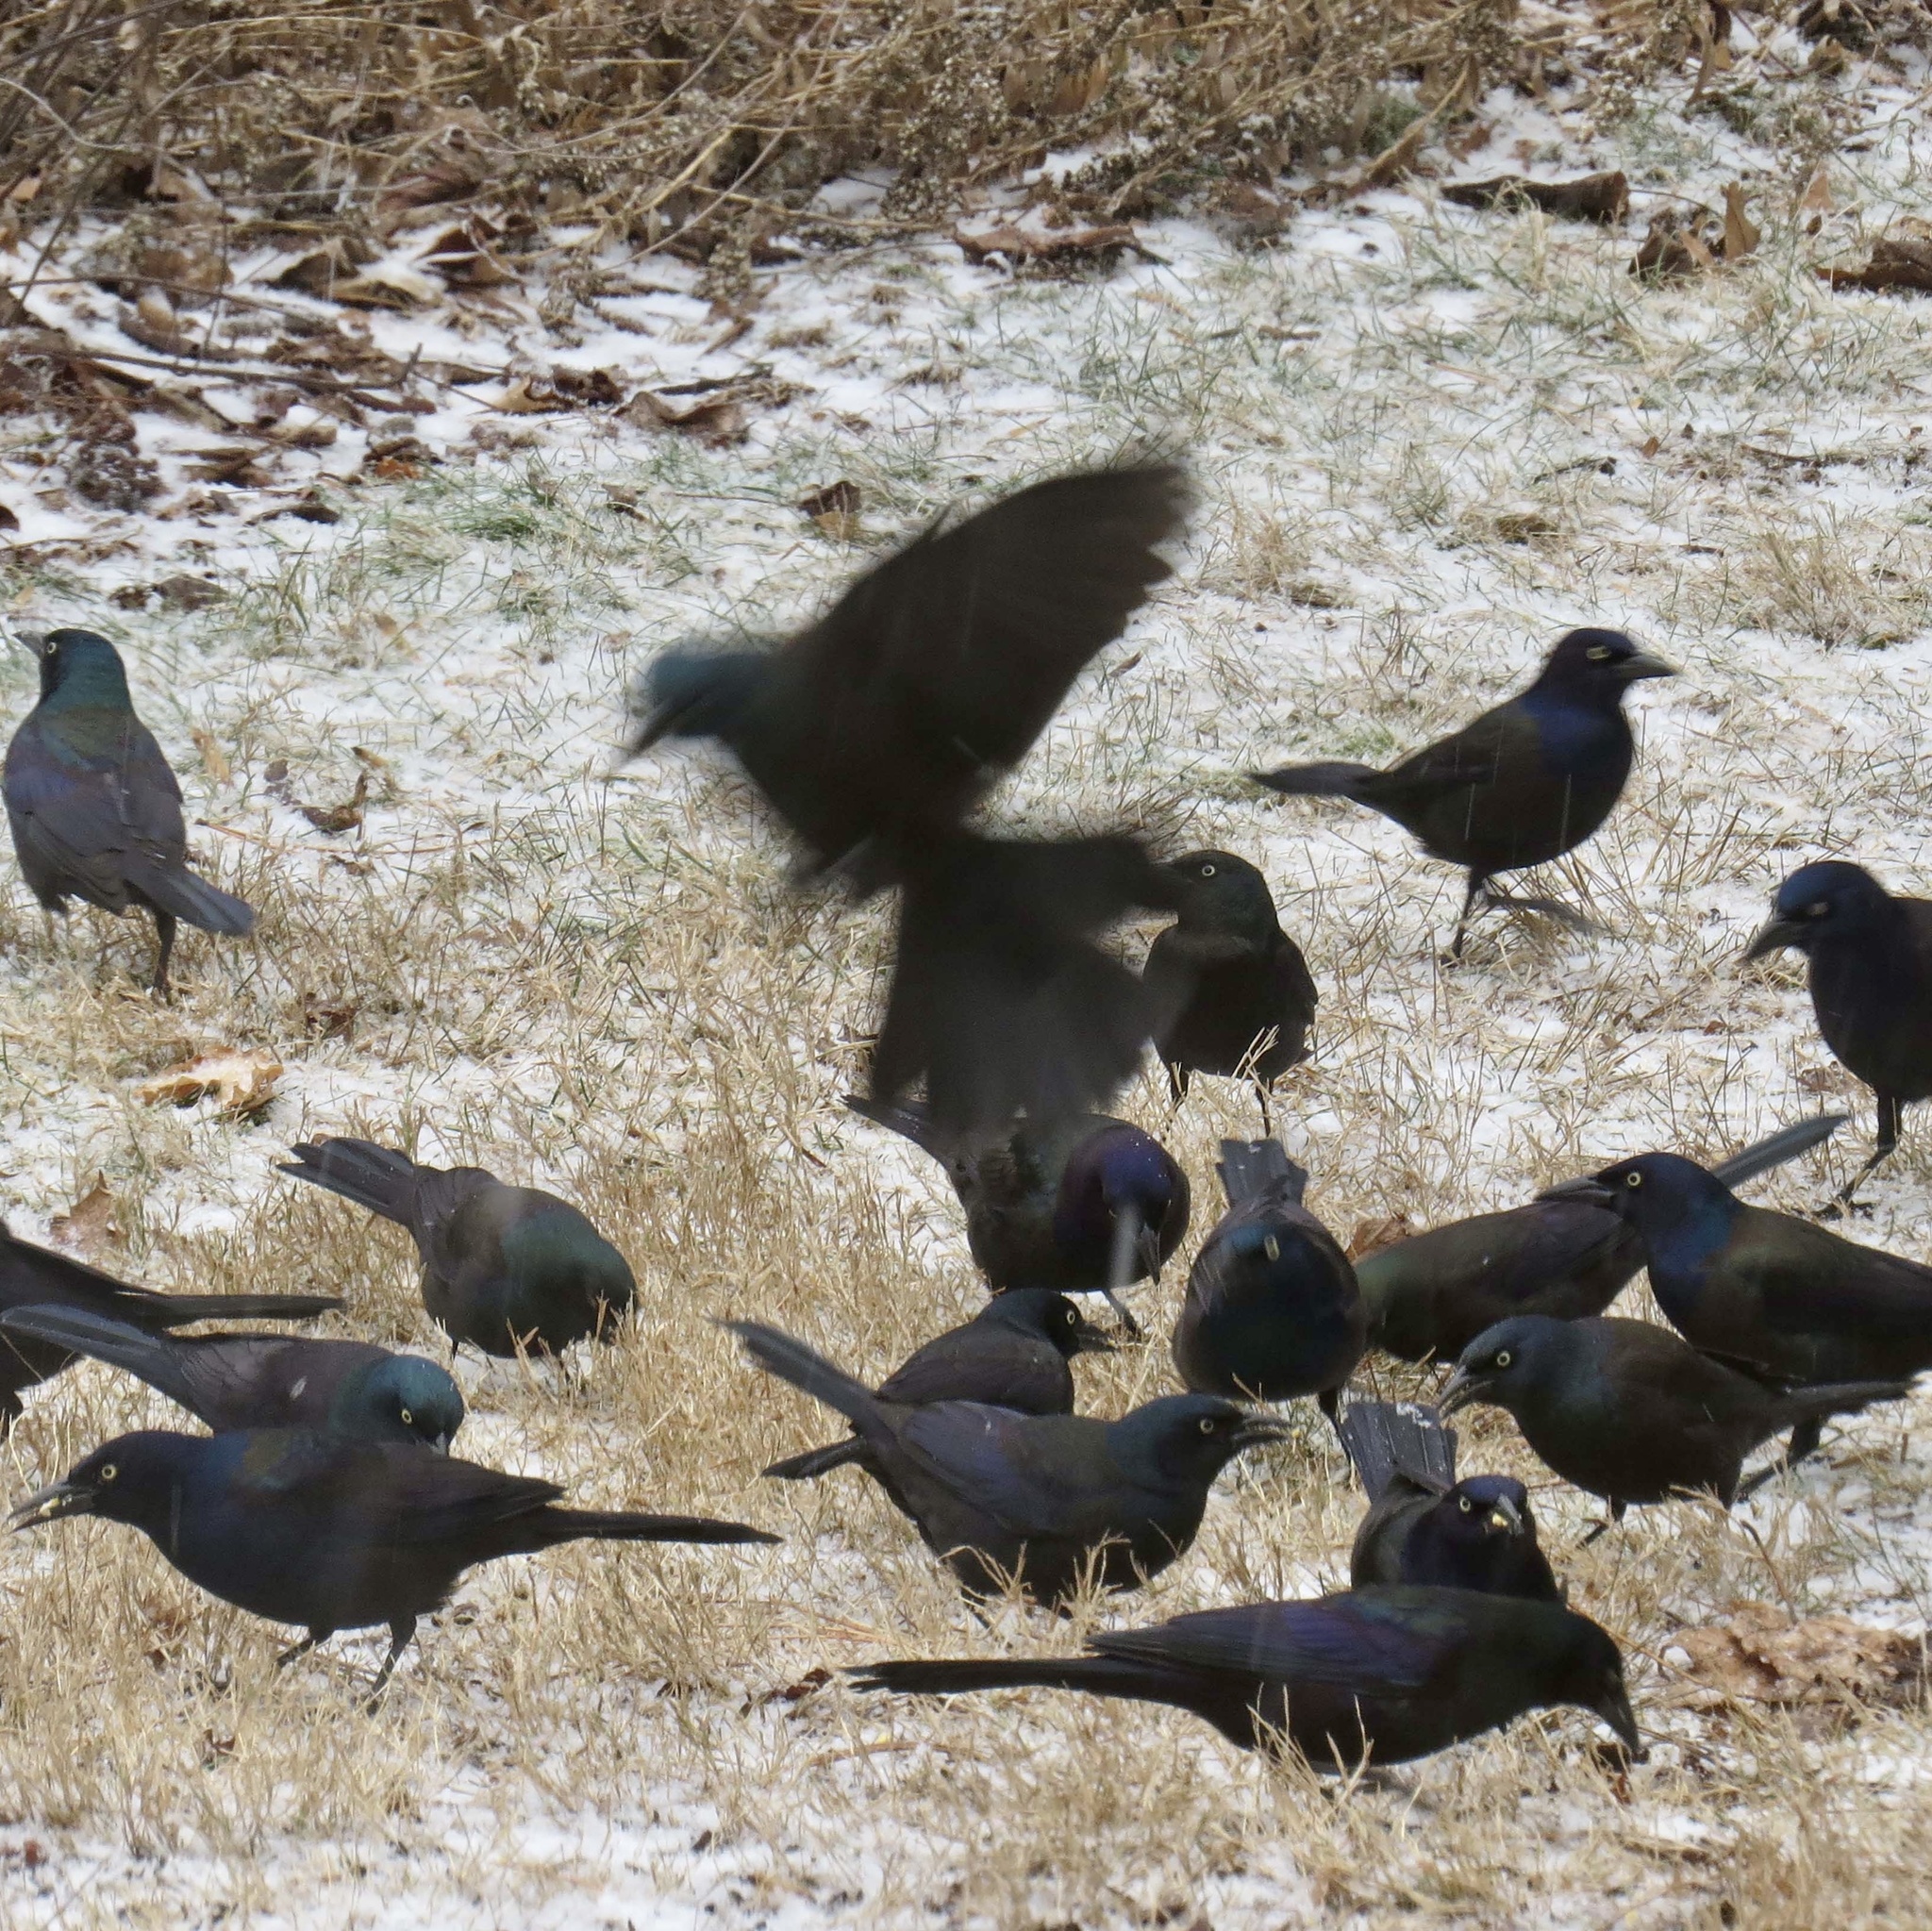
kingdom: Animalia
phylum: Chordata
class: Aves
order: Passeriformes
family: Icteridae
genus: Quiscalus
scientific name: Quiscalus quiscula
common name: Common grackle
